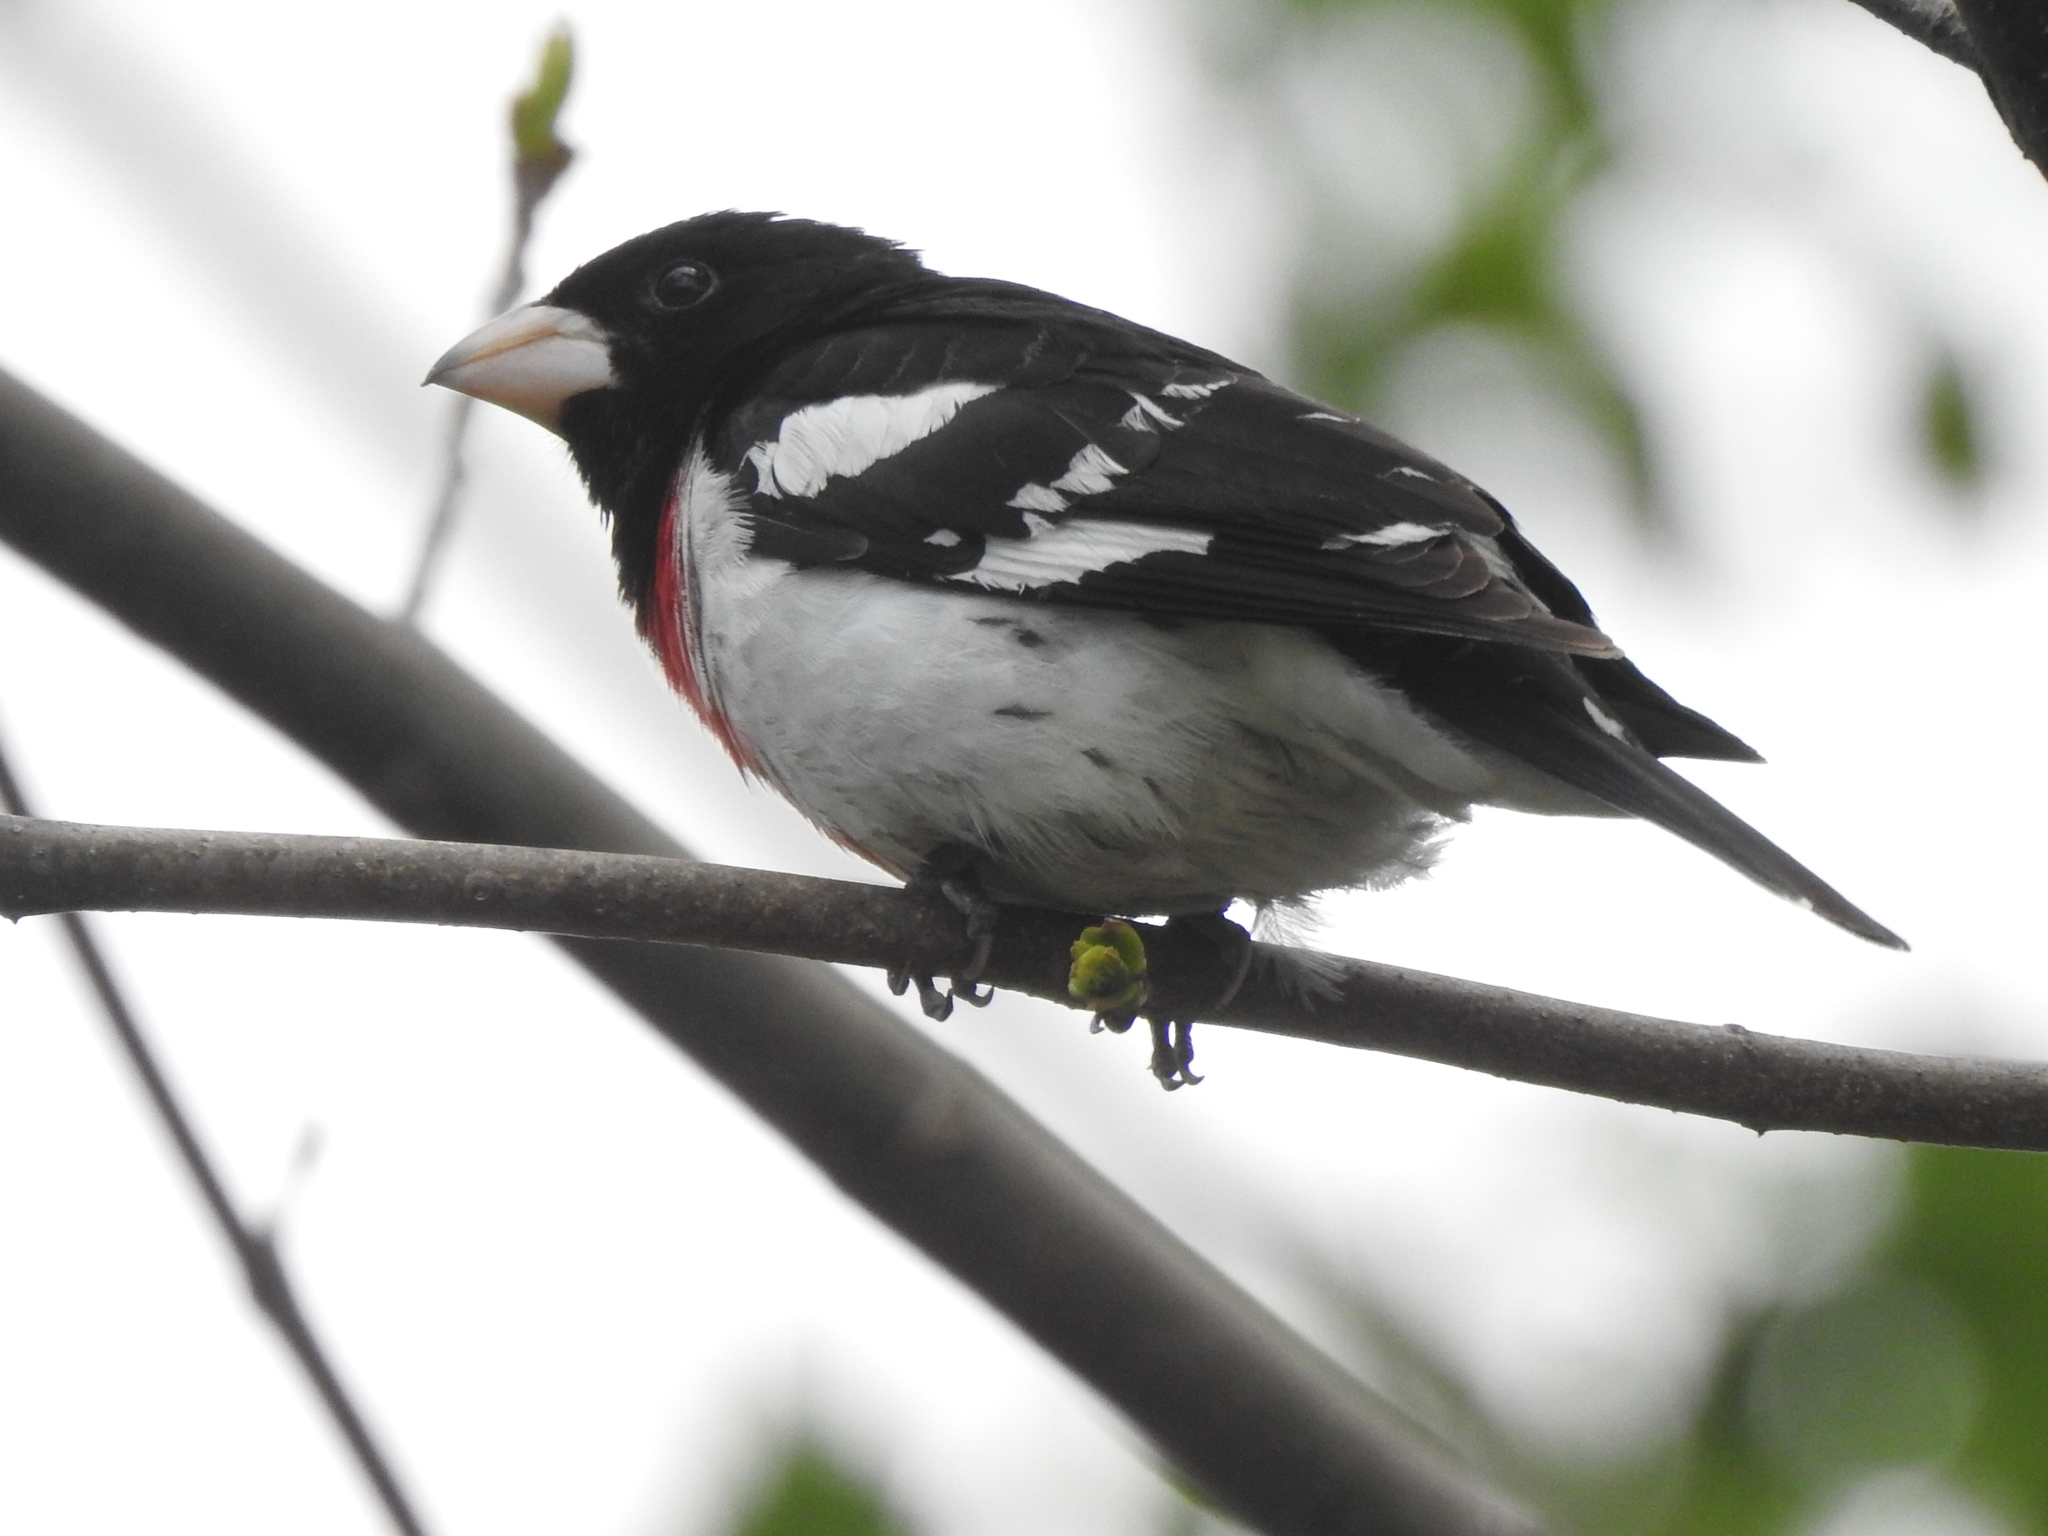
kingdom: Animalia
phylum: Chordata
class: Aves
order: Passeriformes
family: Cardinalidae
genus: Pheucticus
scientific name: Pheucticus ludovicianus
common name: Rose-breasted grosbeak
